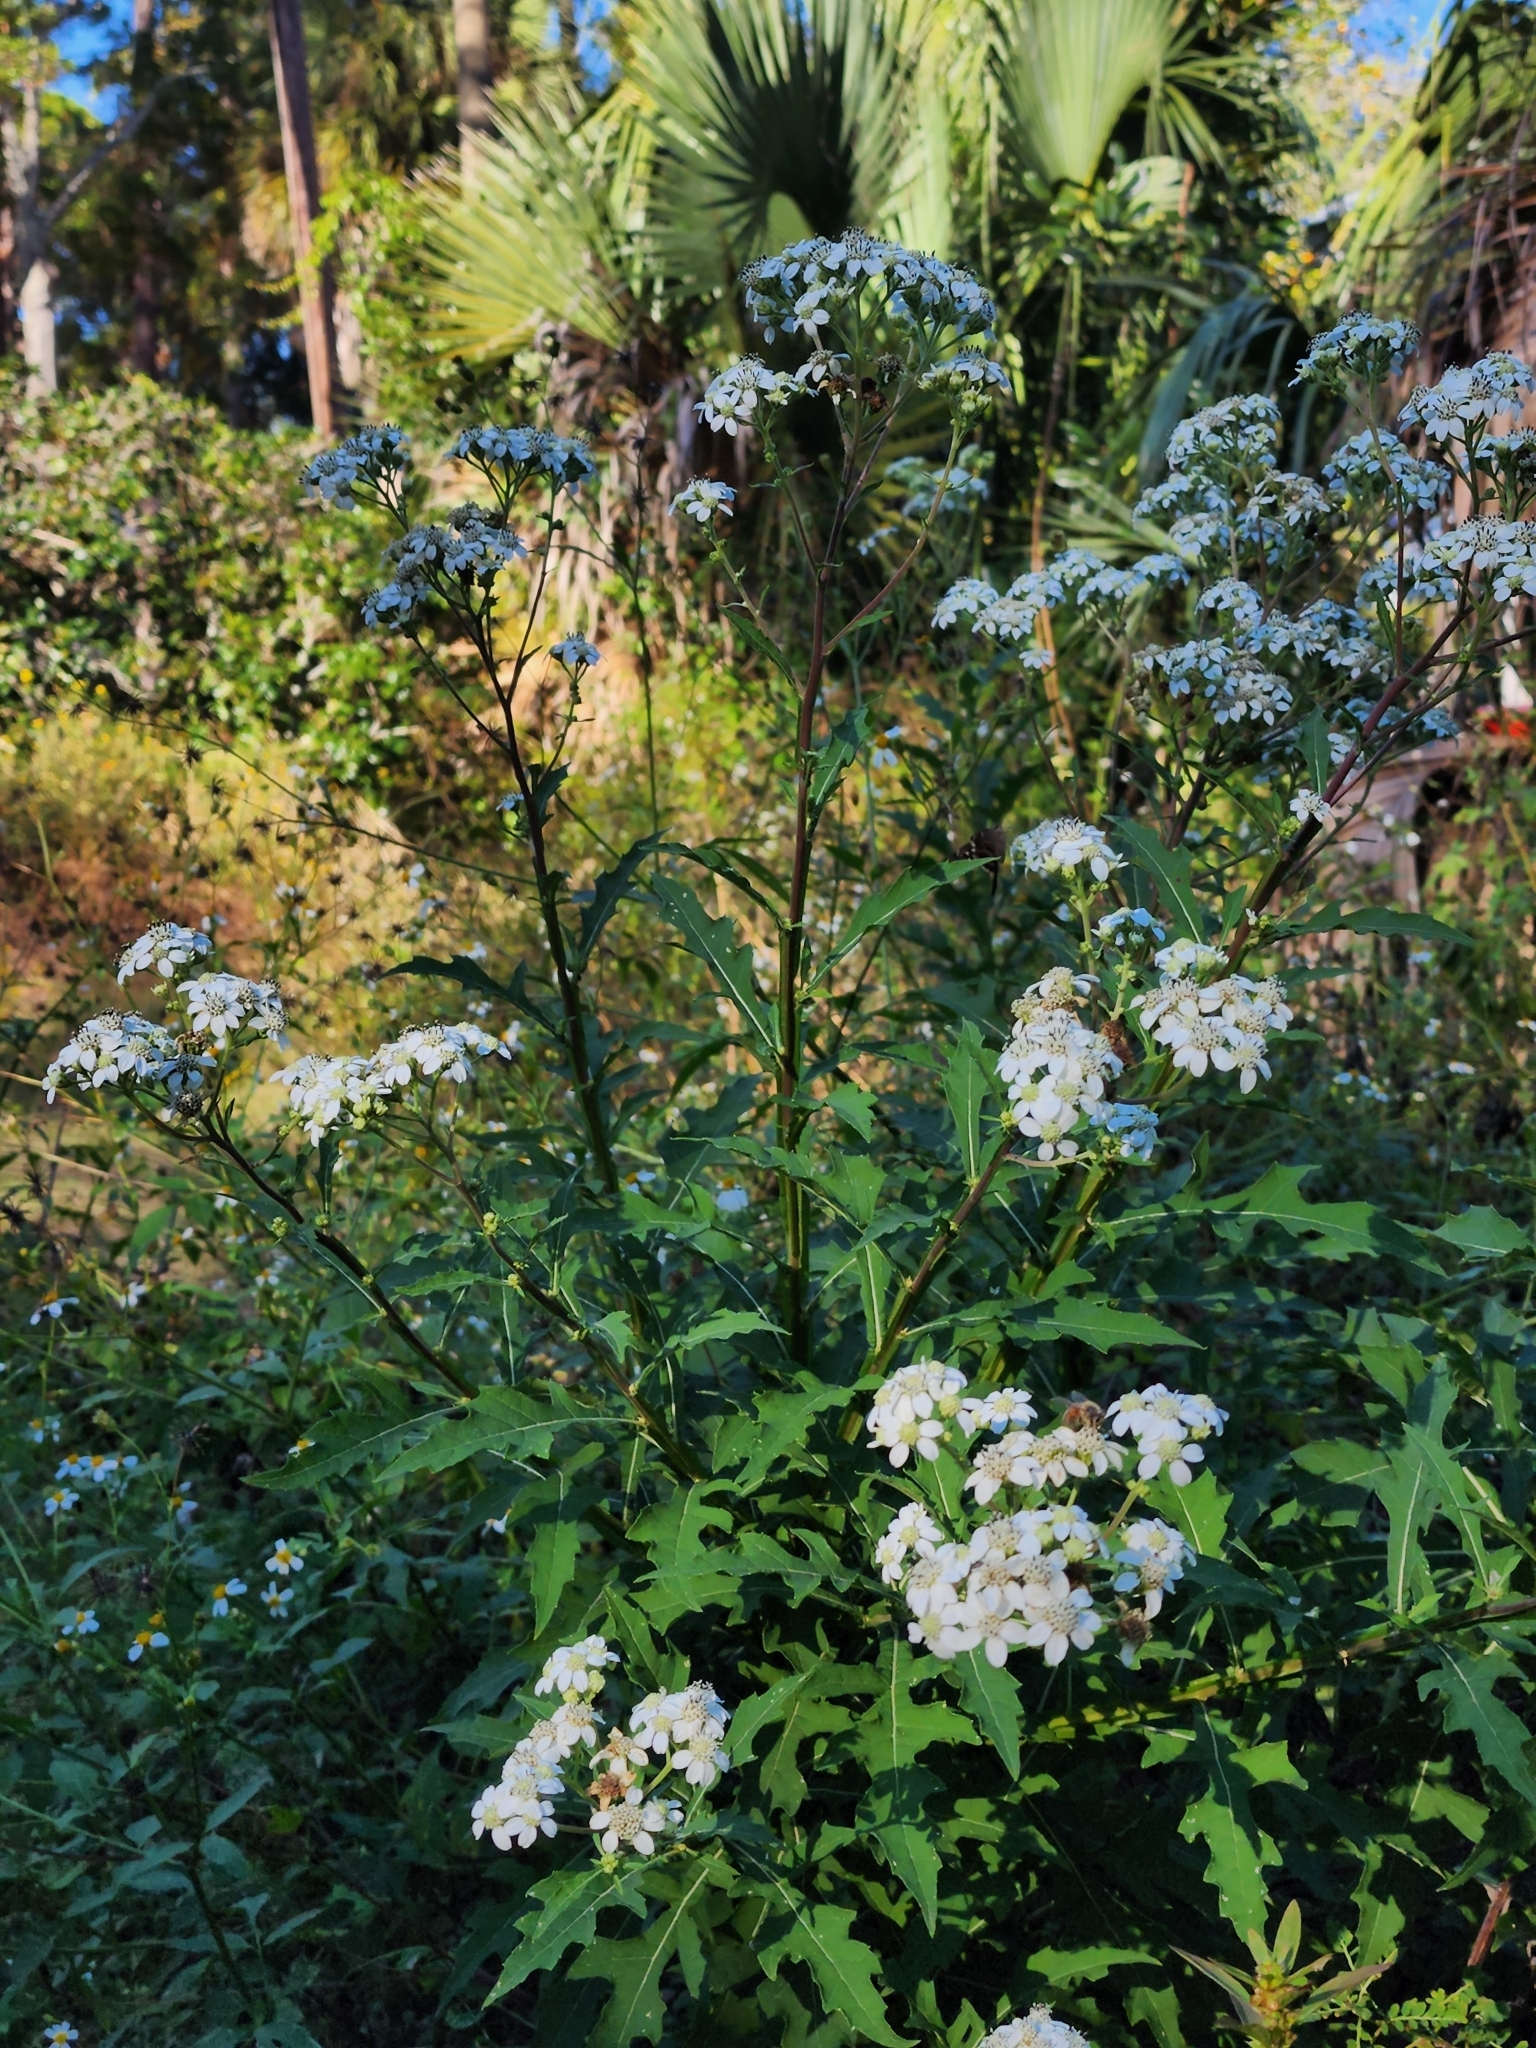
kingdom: Plantae
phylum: Tracheophyta
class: Magnoliopsida
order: Asterales
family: Asteraceae
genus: Verbesina
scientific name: Verbesina virginica
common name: Frostweed
